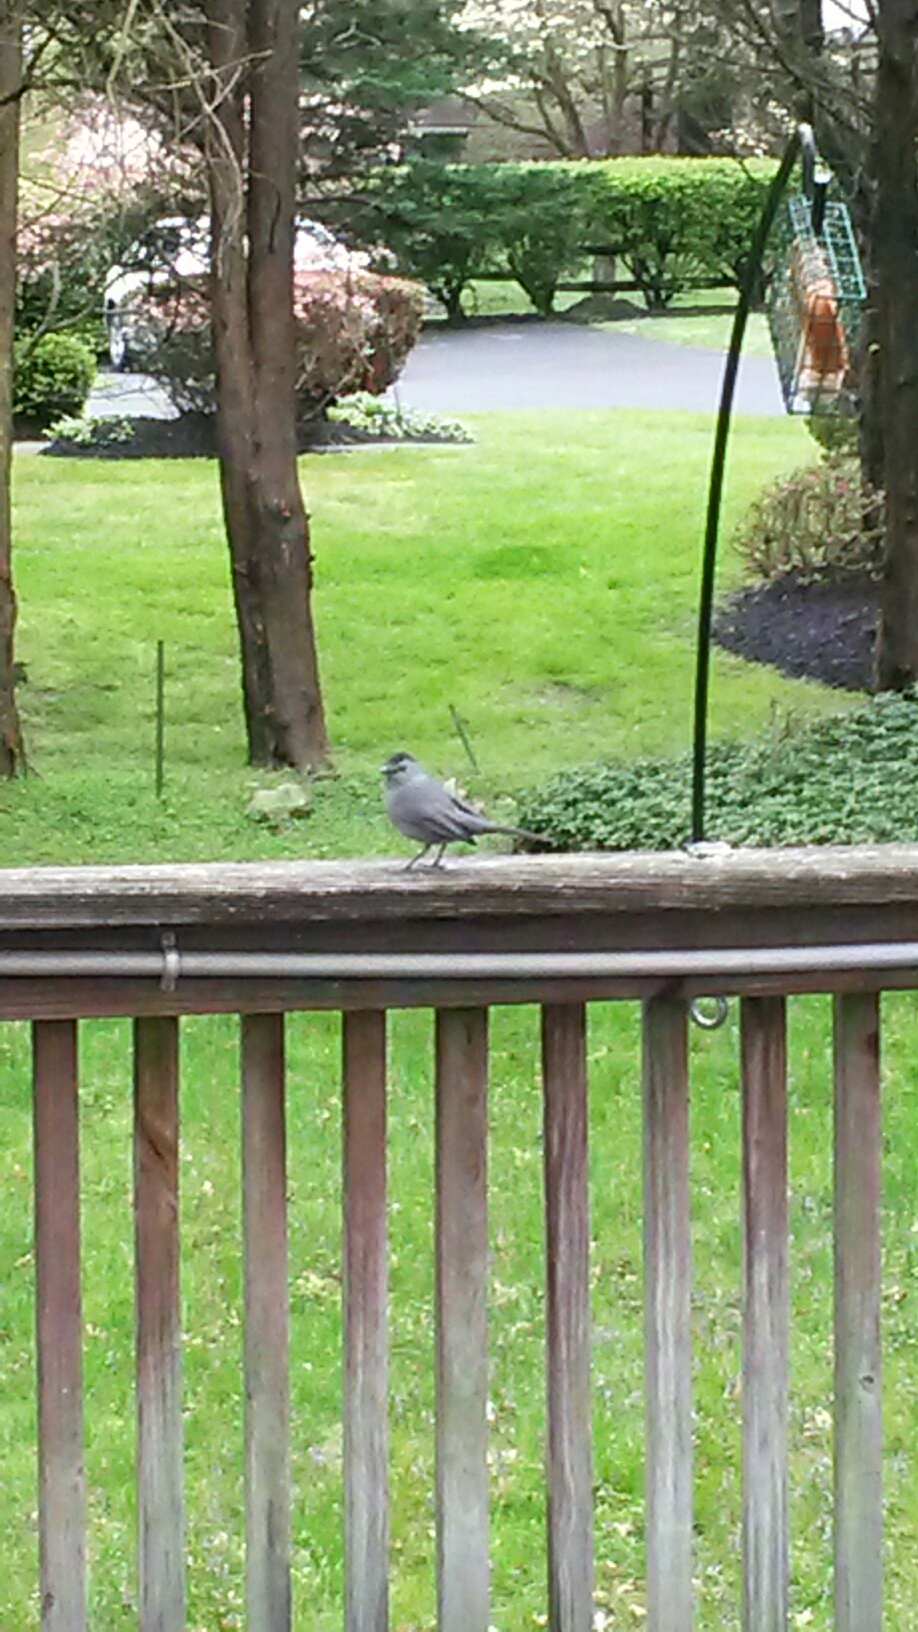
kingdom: Animalia
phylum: Chordata
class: Aves
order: Passeriformes
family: Mimidae
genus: Dumetella
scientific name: Dumetella carolinensis
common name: Gray catbird
